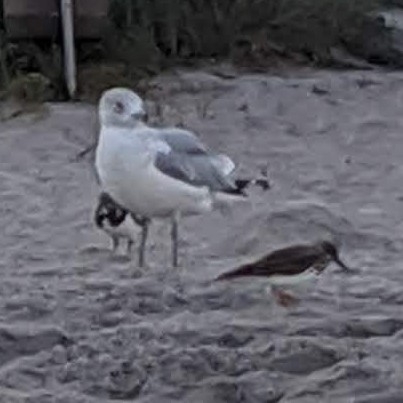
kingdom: Animalia
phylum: Chordata
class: Aves
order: Charadriiformes
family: Laridae
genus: Larus
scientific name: Larus delawarensis
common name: Ring-billed gull
